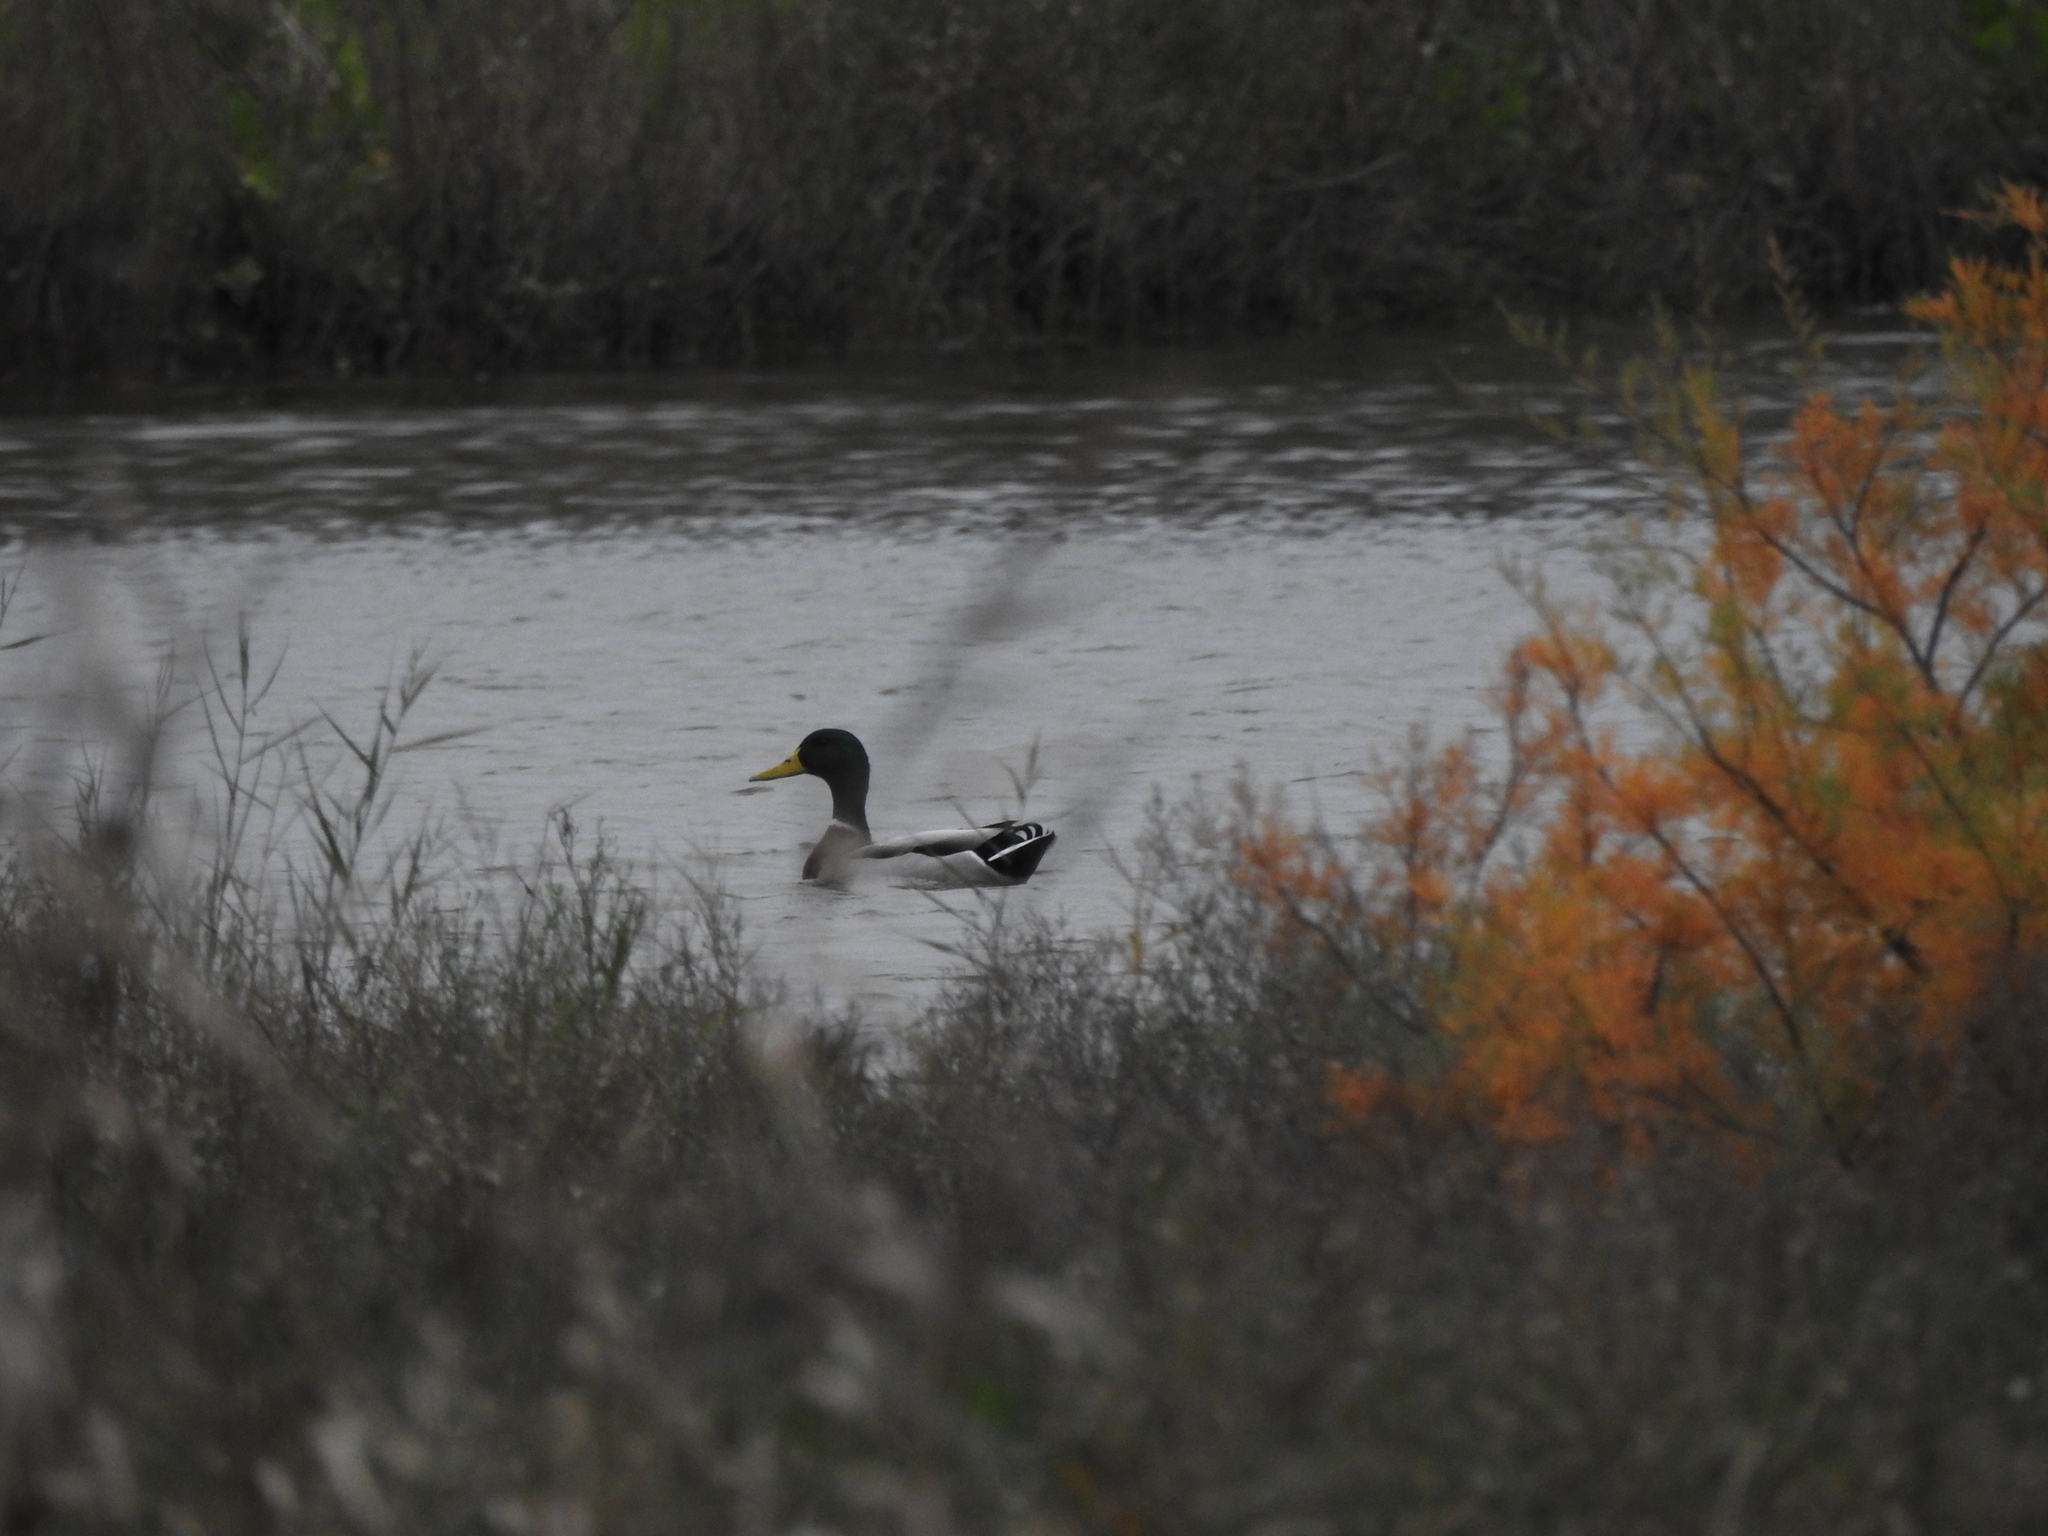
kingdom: Animalia
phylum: Chordata
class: Aves
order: Anseriformes
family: Anatidae
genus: Anas
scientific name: Anas platyrhynchos
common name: Mallard
